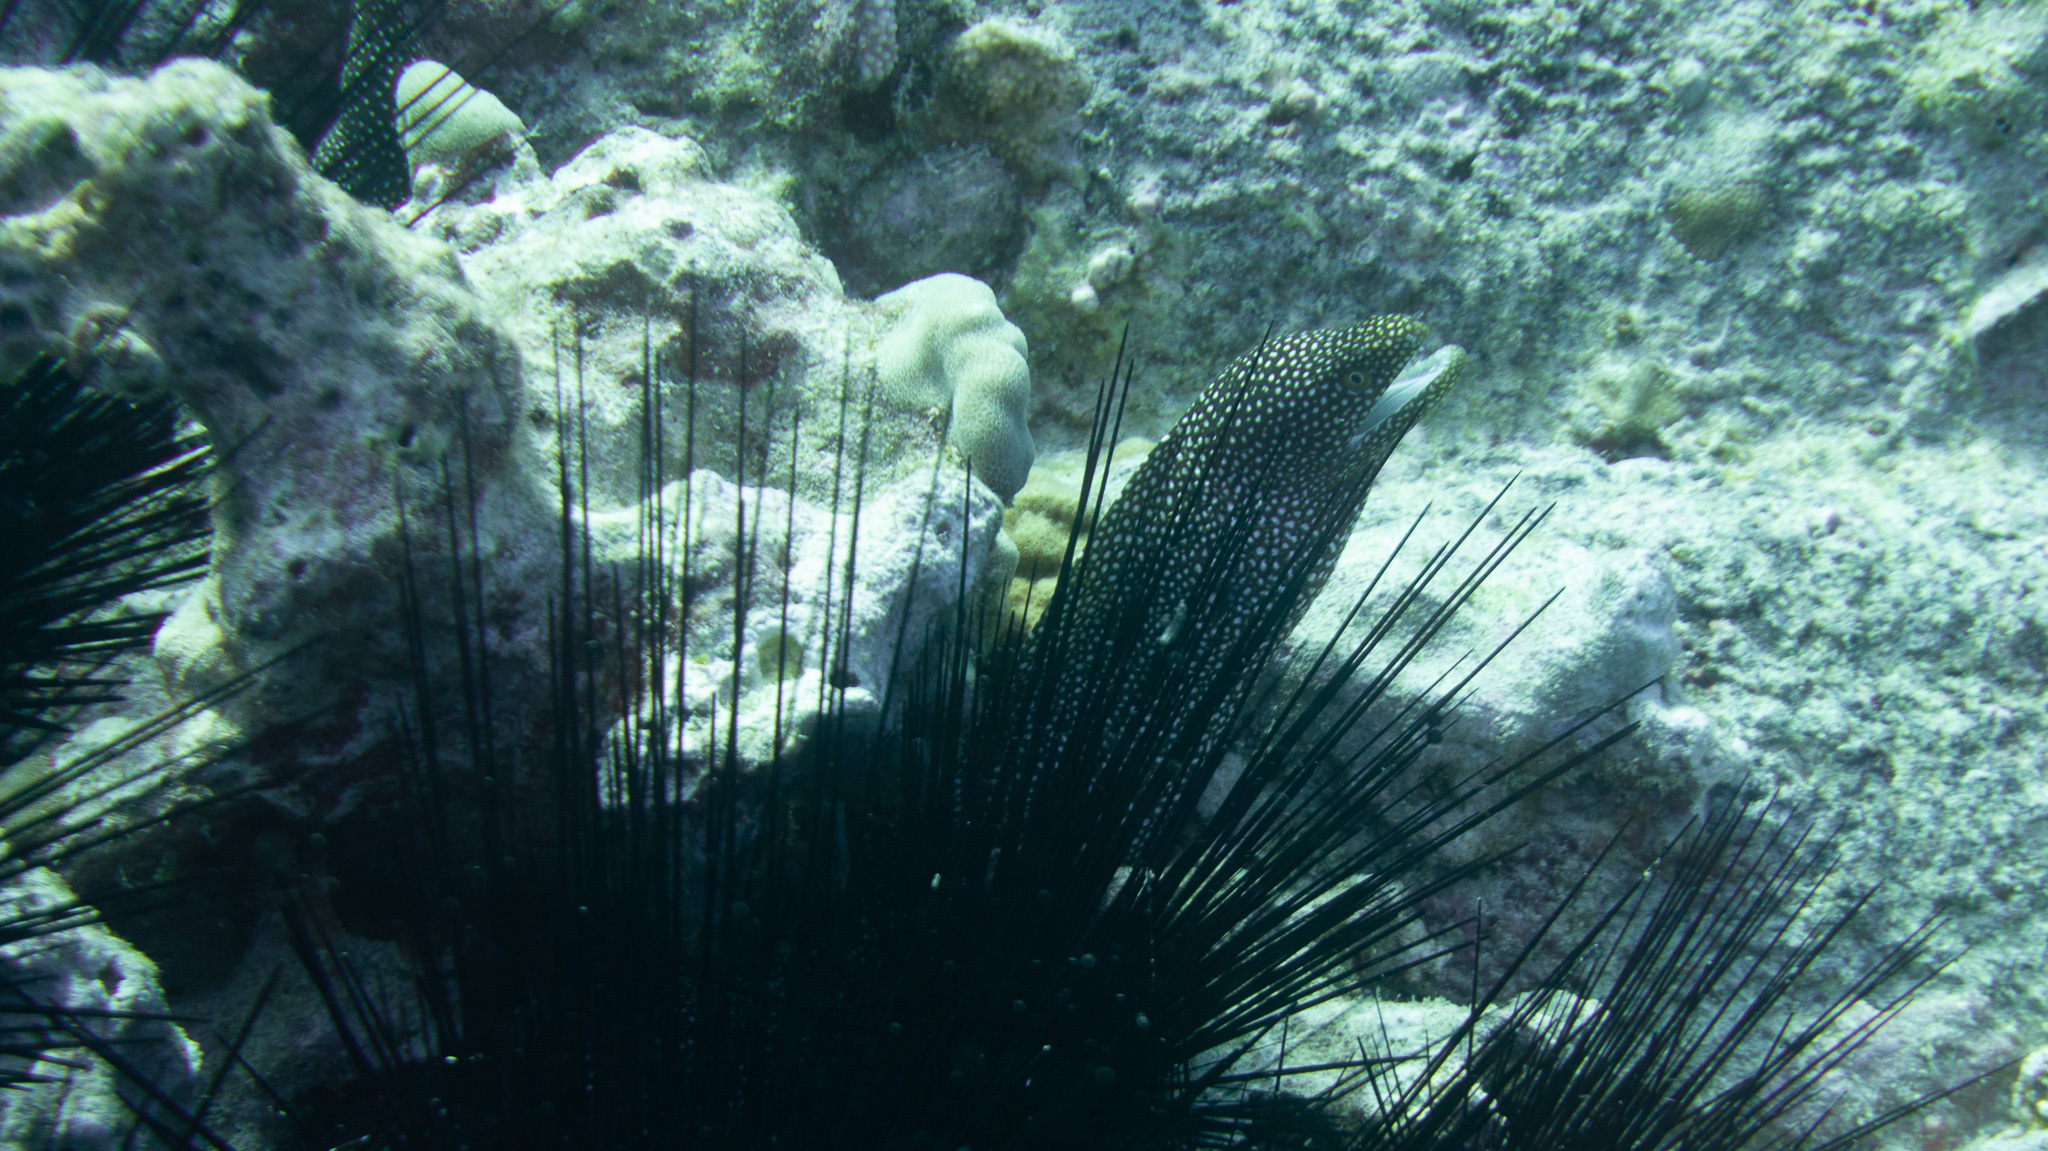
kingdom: Animalia
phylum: Chordata
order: Anguilliformes
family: Muraenidae
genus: Gymnothorax
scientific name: Gymnothorax meleagris
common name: Guineafowl moray
